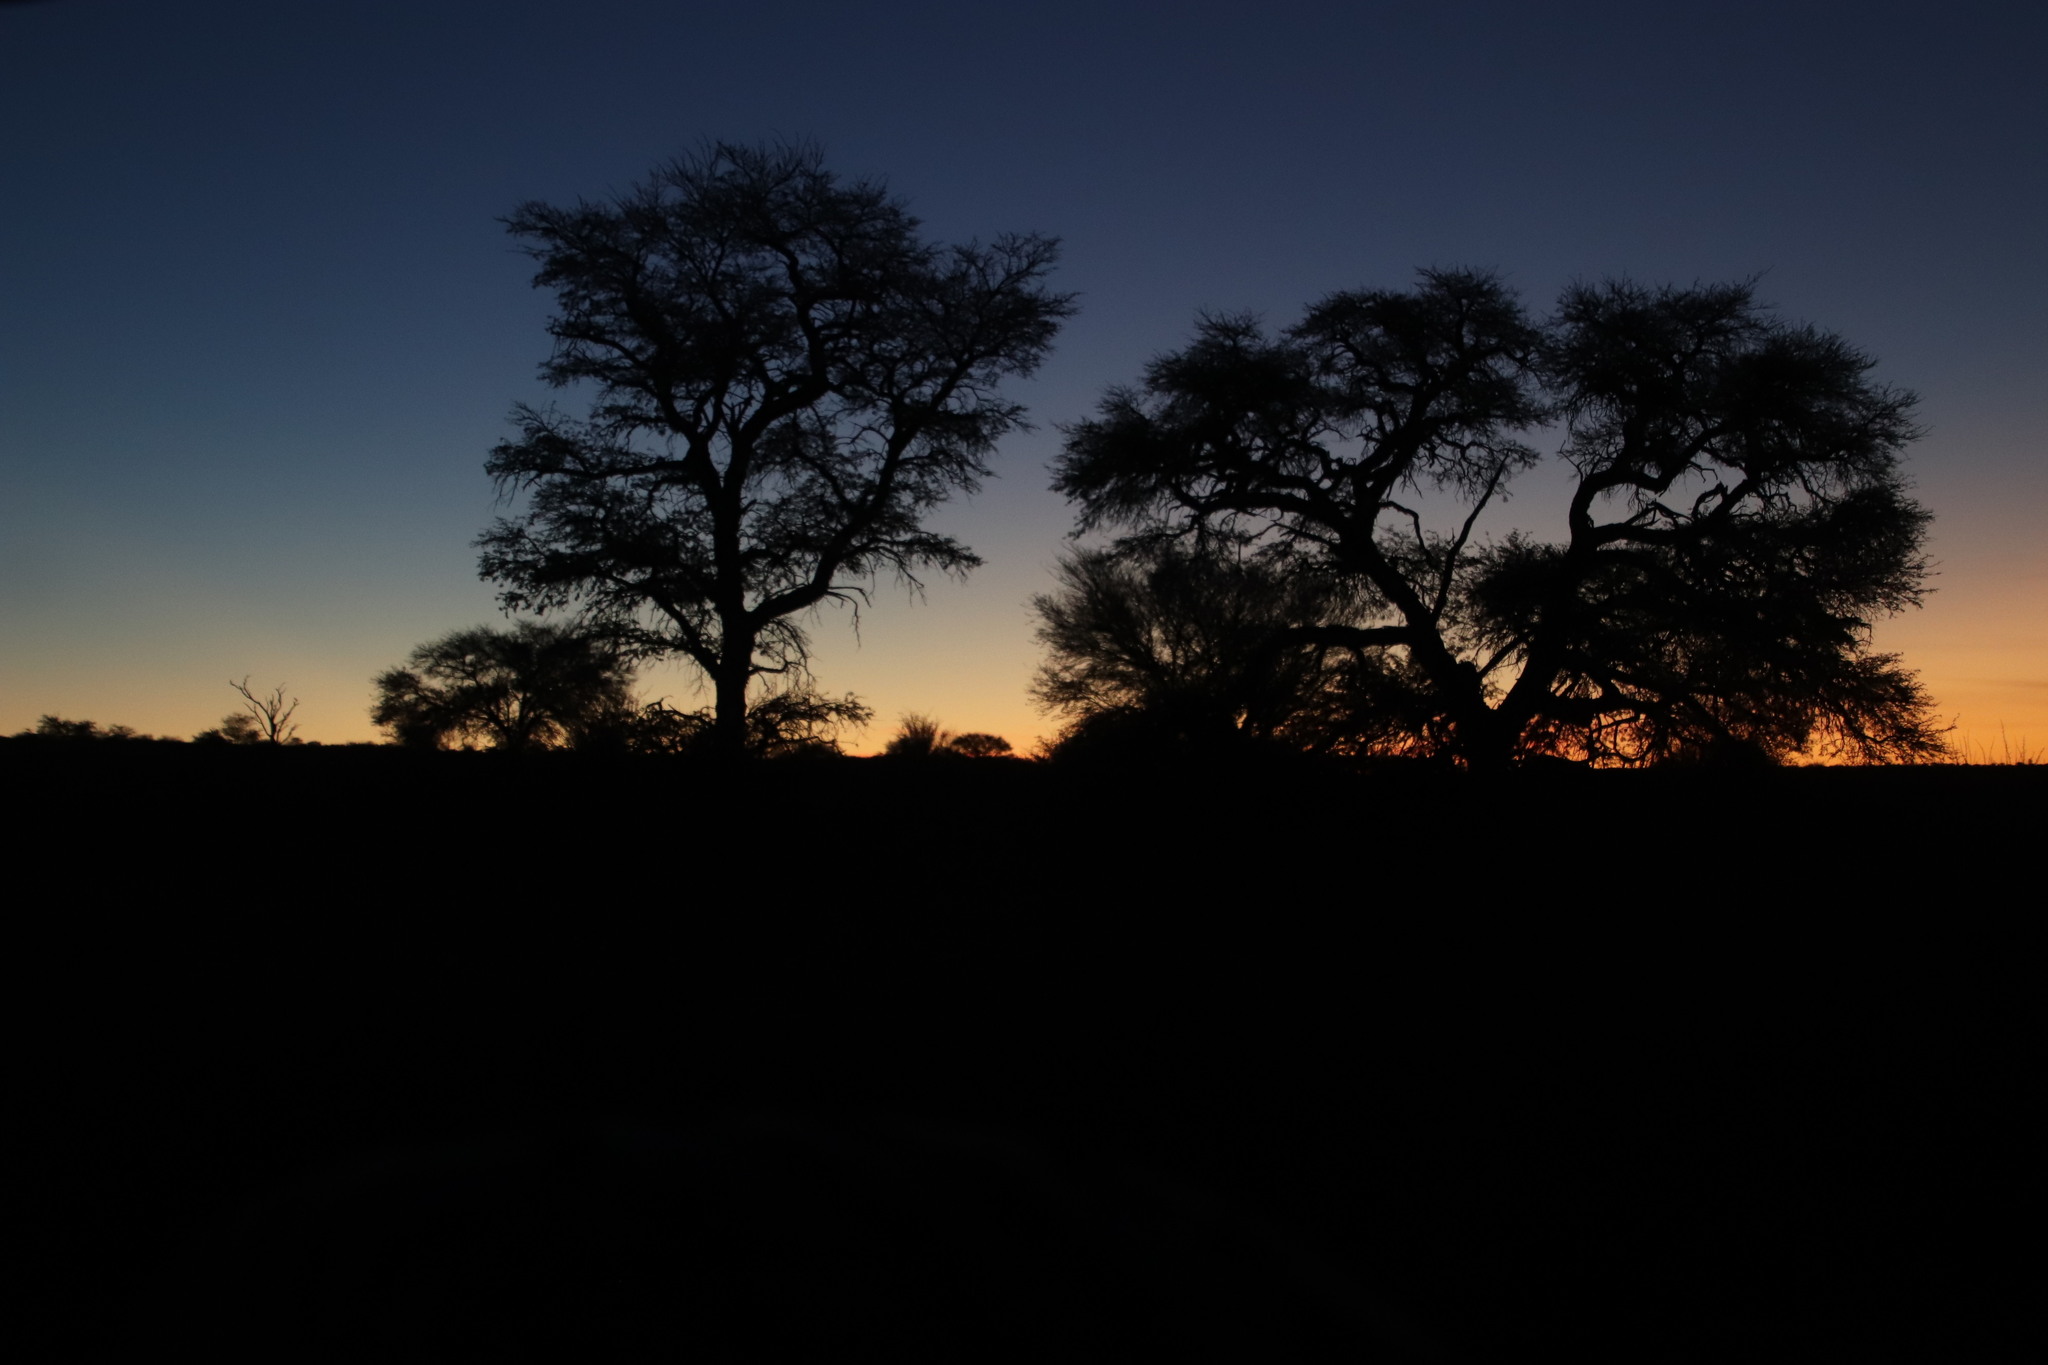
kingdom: Plantae
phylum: Tracheophyta
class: Magnoliopsida
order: Fabales
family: Fabaceae
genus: Vachellia
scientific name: Vachellia erioloba
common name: Camel thorn
